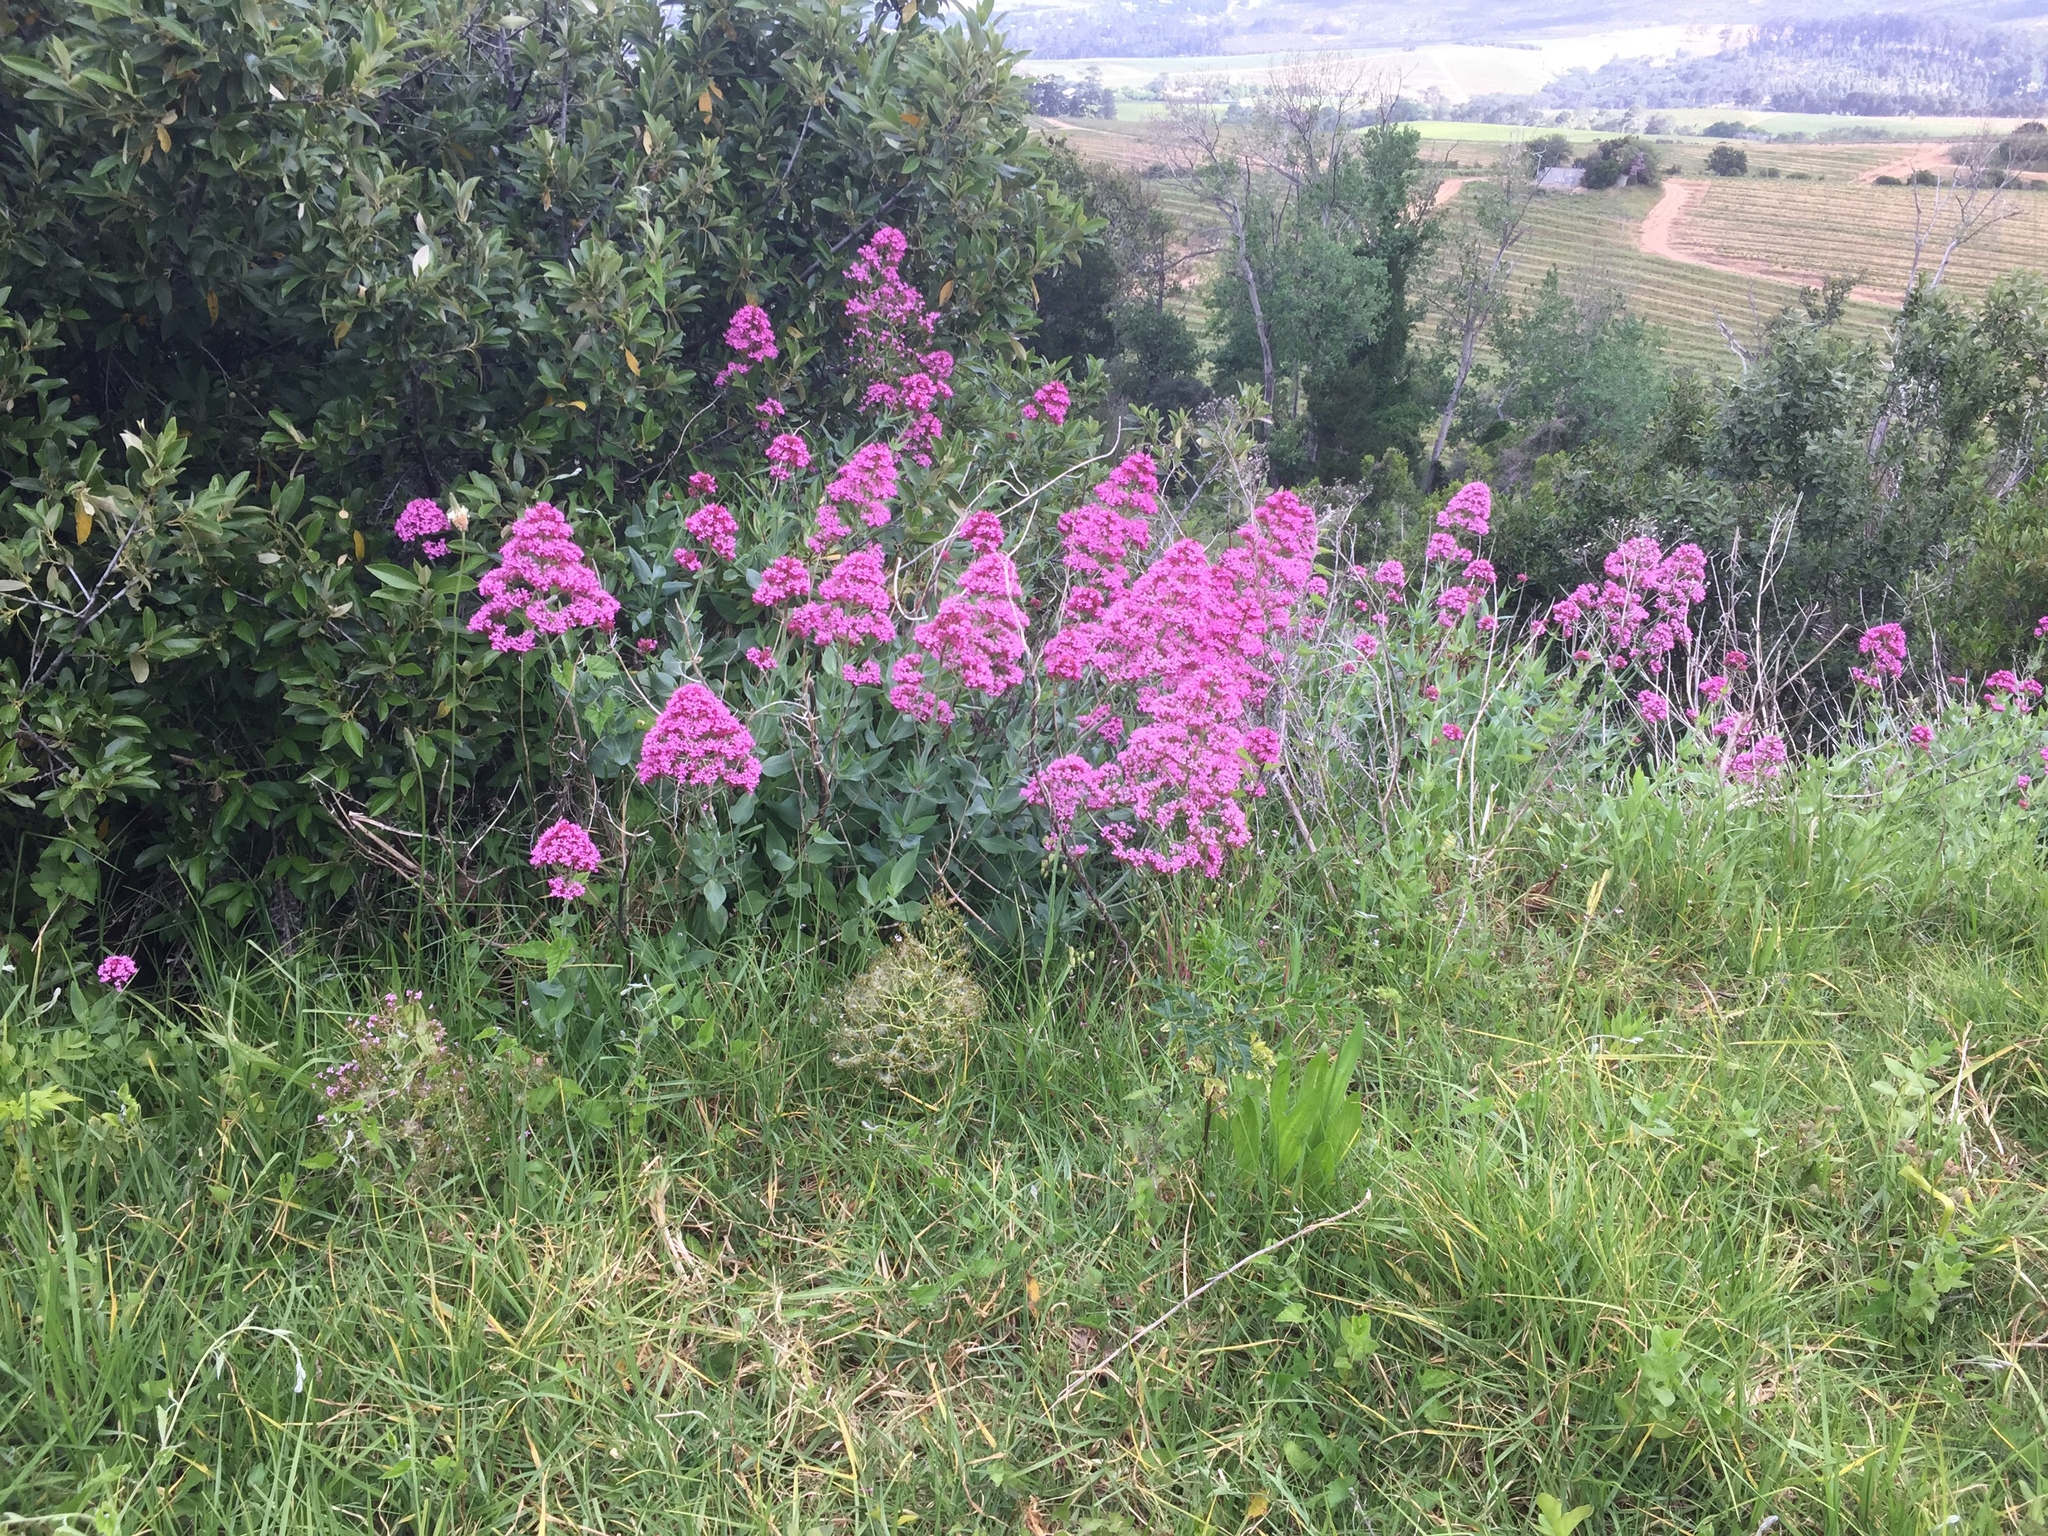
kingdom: Plantae
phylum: Tracheophyta
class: Magnoliopsida
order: Dipsacales
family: Caprifoliaceae
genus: Centranthus
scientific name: Centranthus ruber
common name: Red valerian
